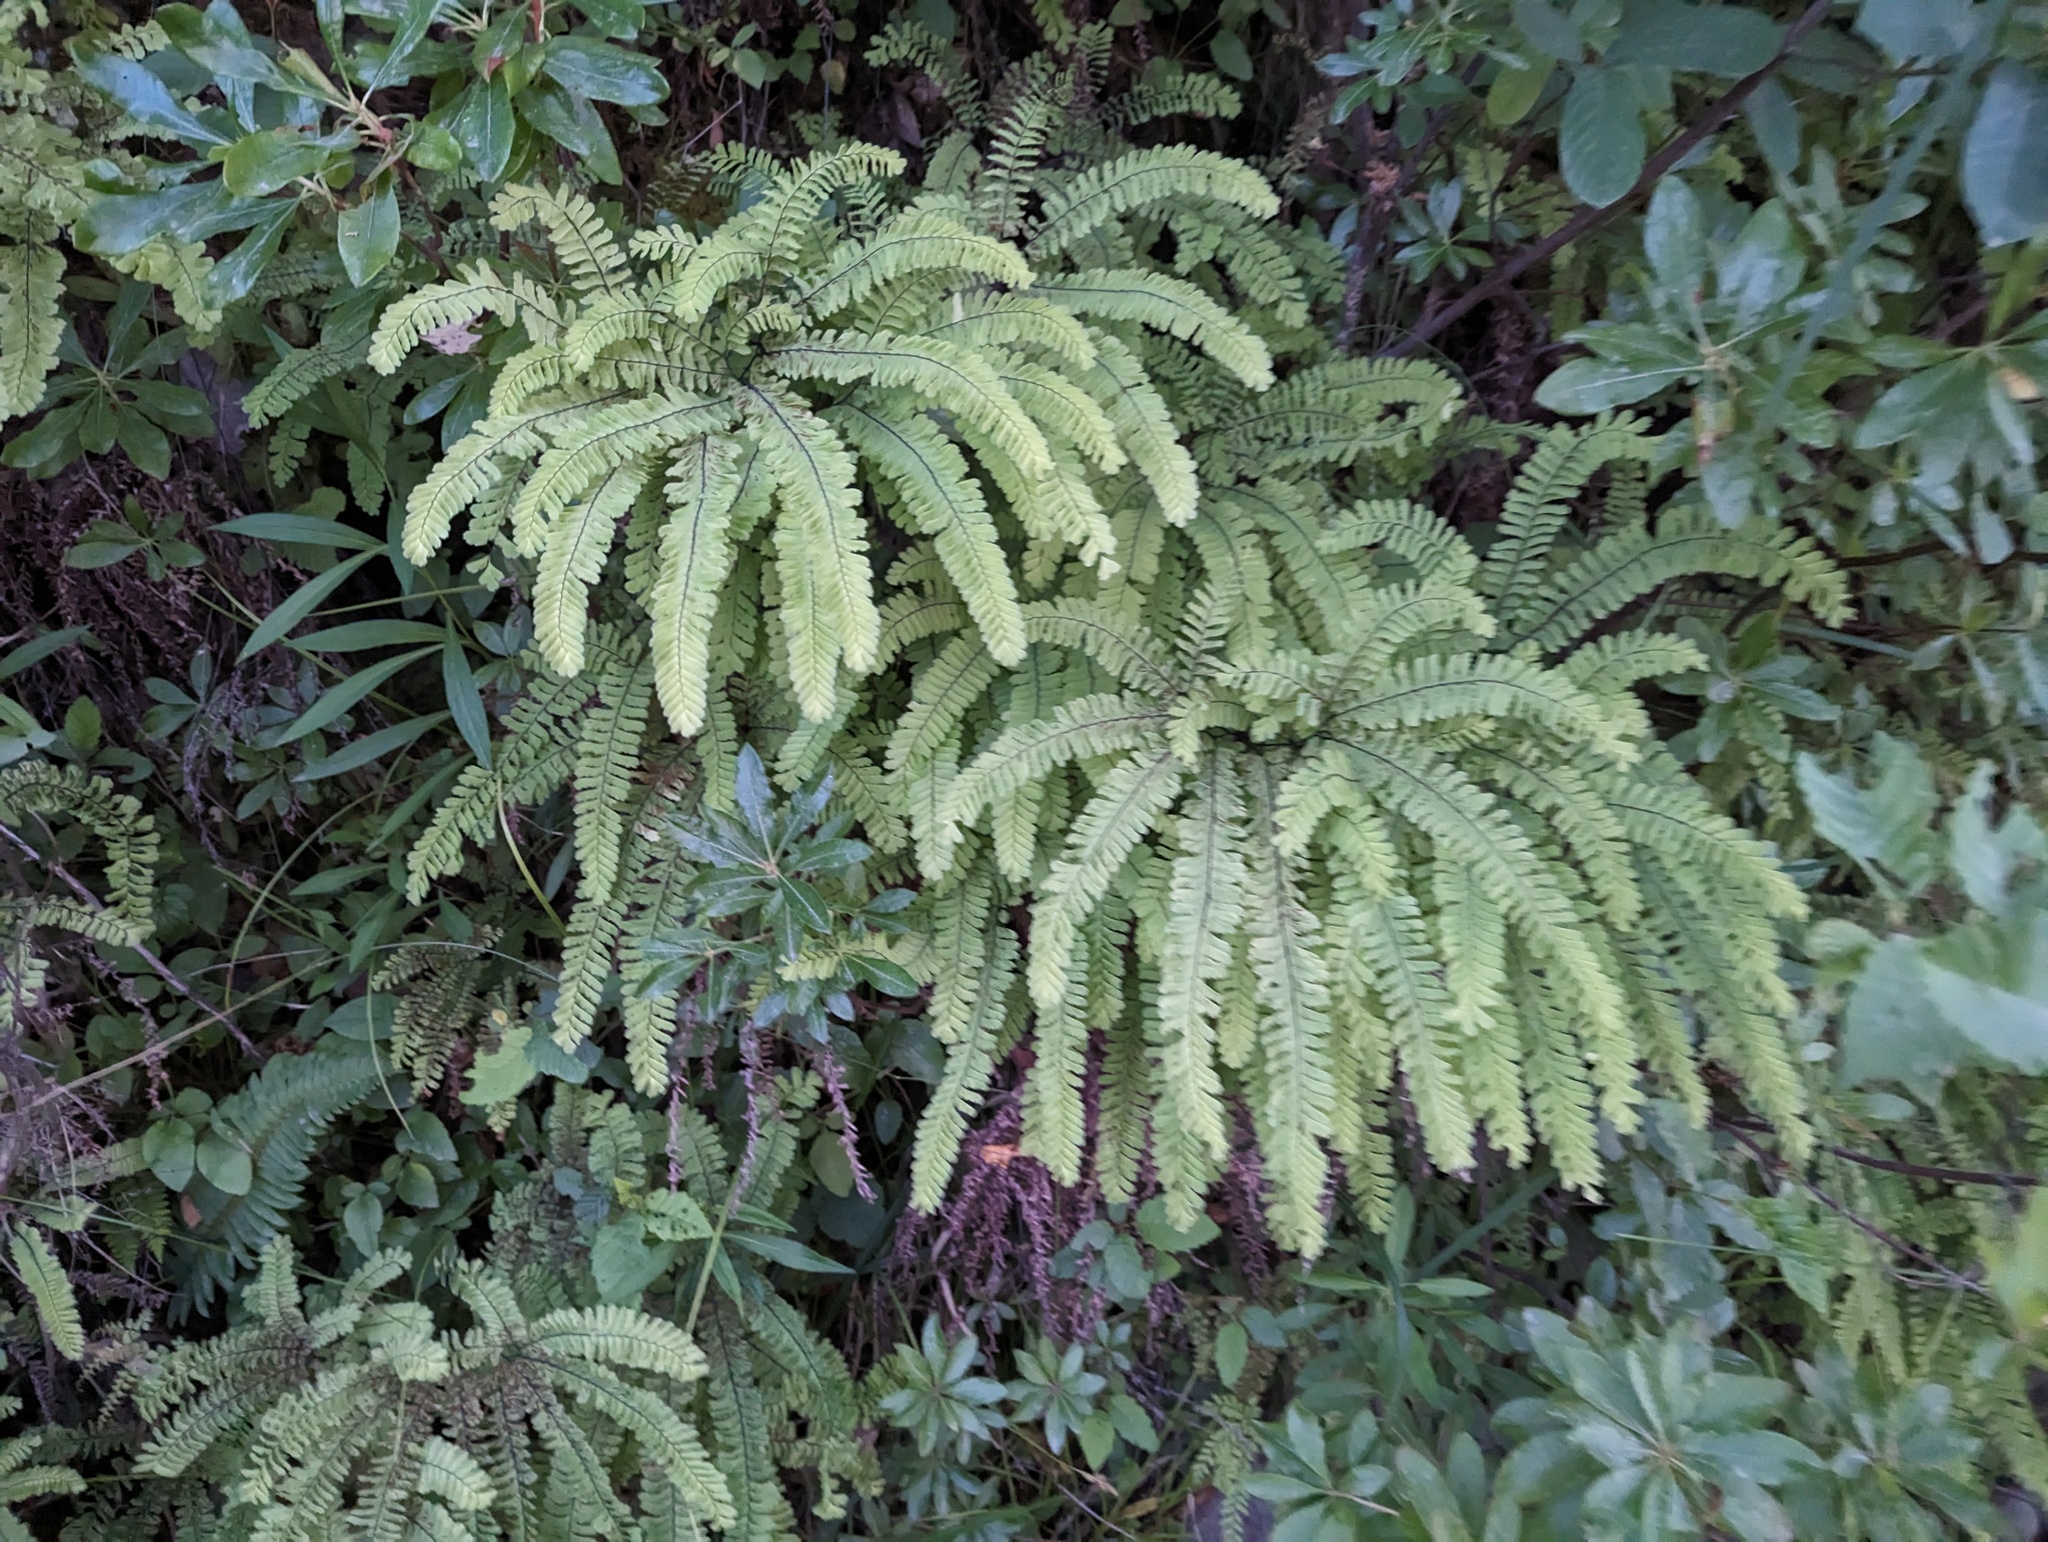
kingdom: Plantae
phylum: Tracheophyta
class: Polypodiopsida
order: Polypodiales
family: Pteridaceae
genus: Adiantum
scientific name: Adiantum aleuticum
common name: Aleutian maidenhair fern
